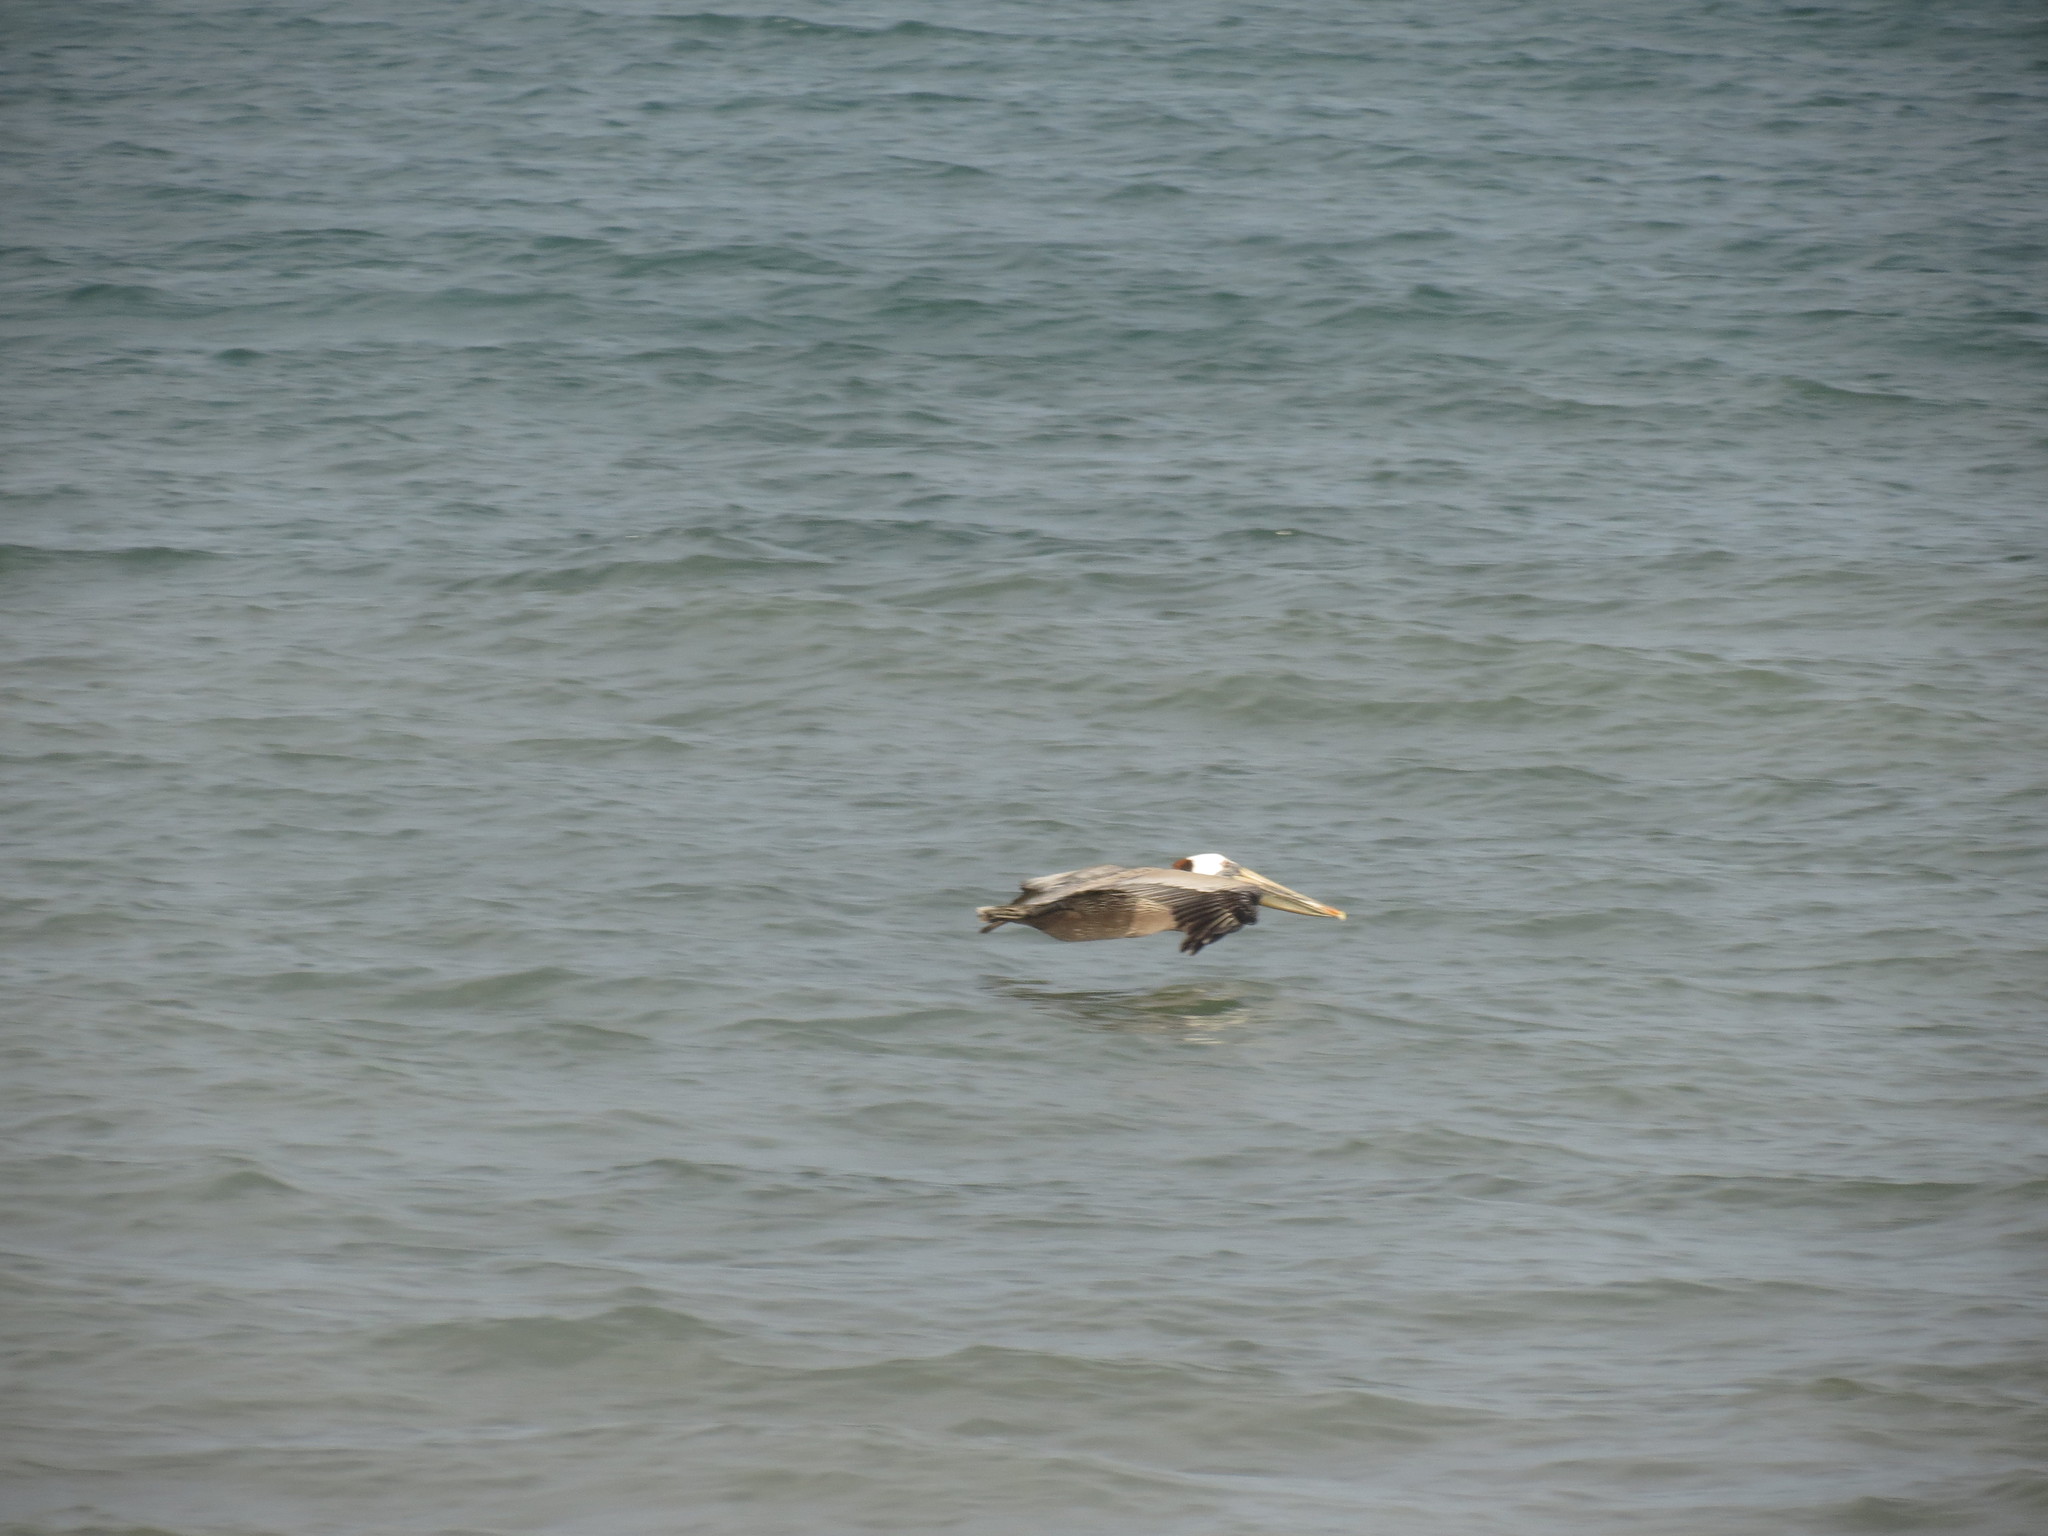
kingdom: Animalia
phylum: Chordata
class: Aves
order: Pelecaniformes
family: Pelecanidae
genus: Pelecanus
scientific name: Pelecanus occidentalis
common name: Brown pelican
